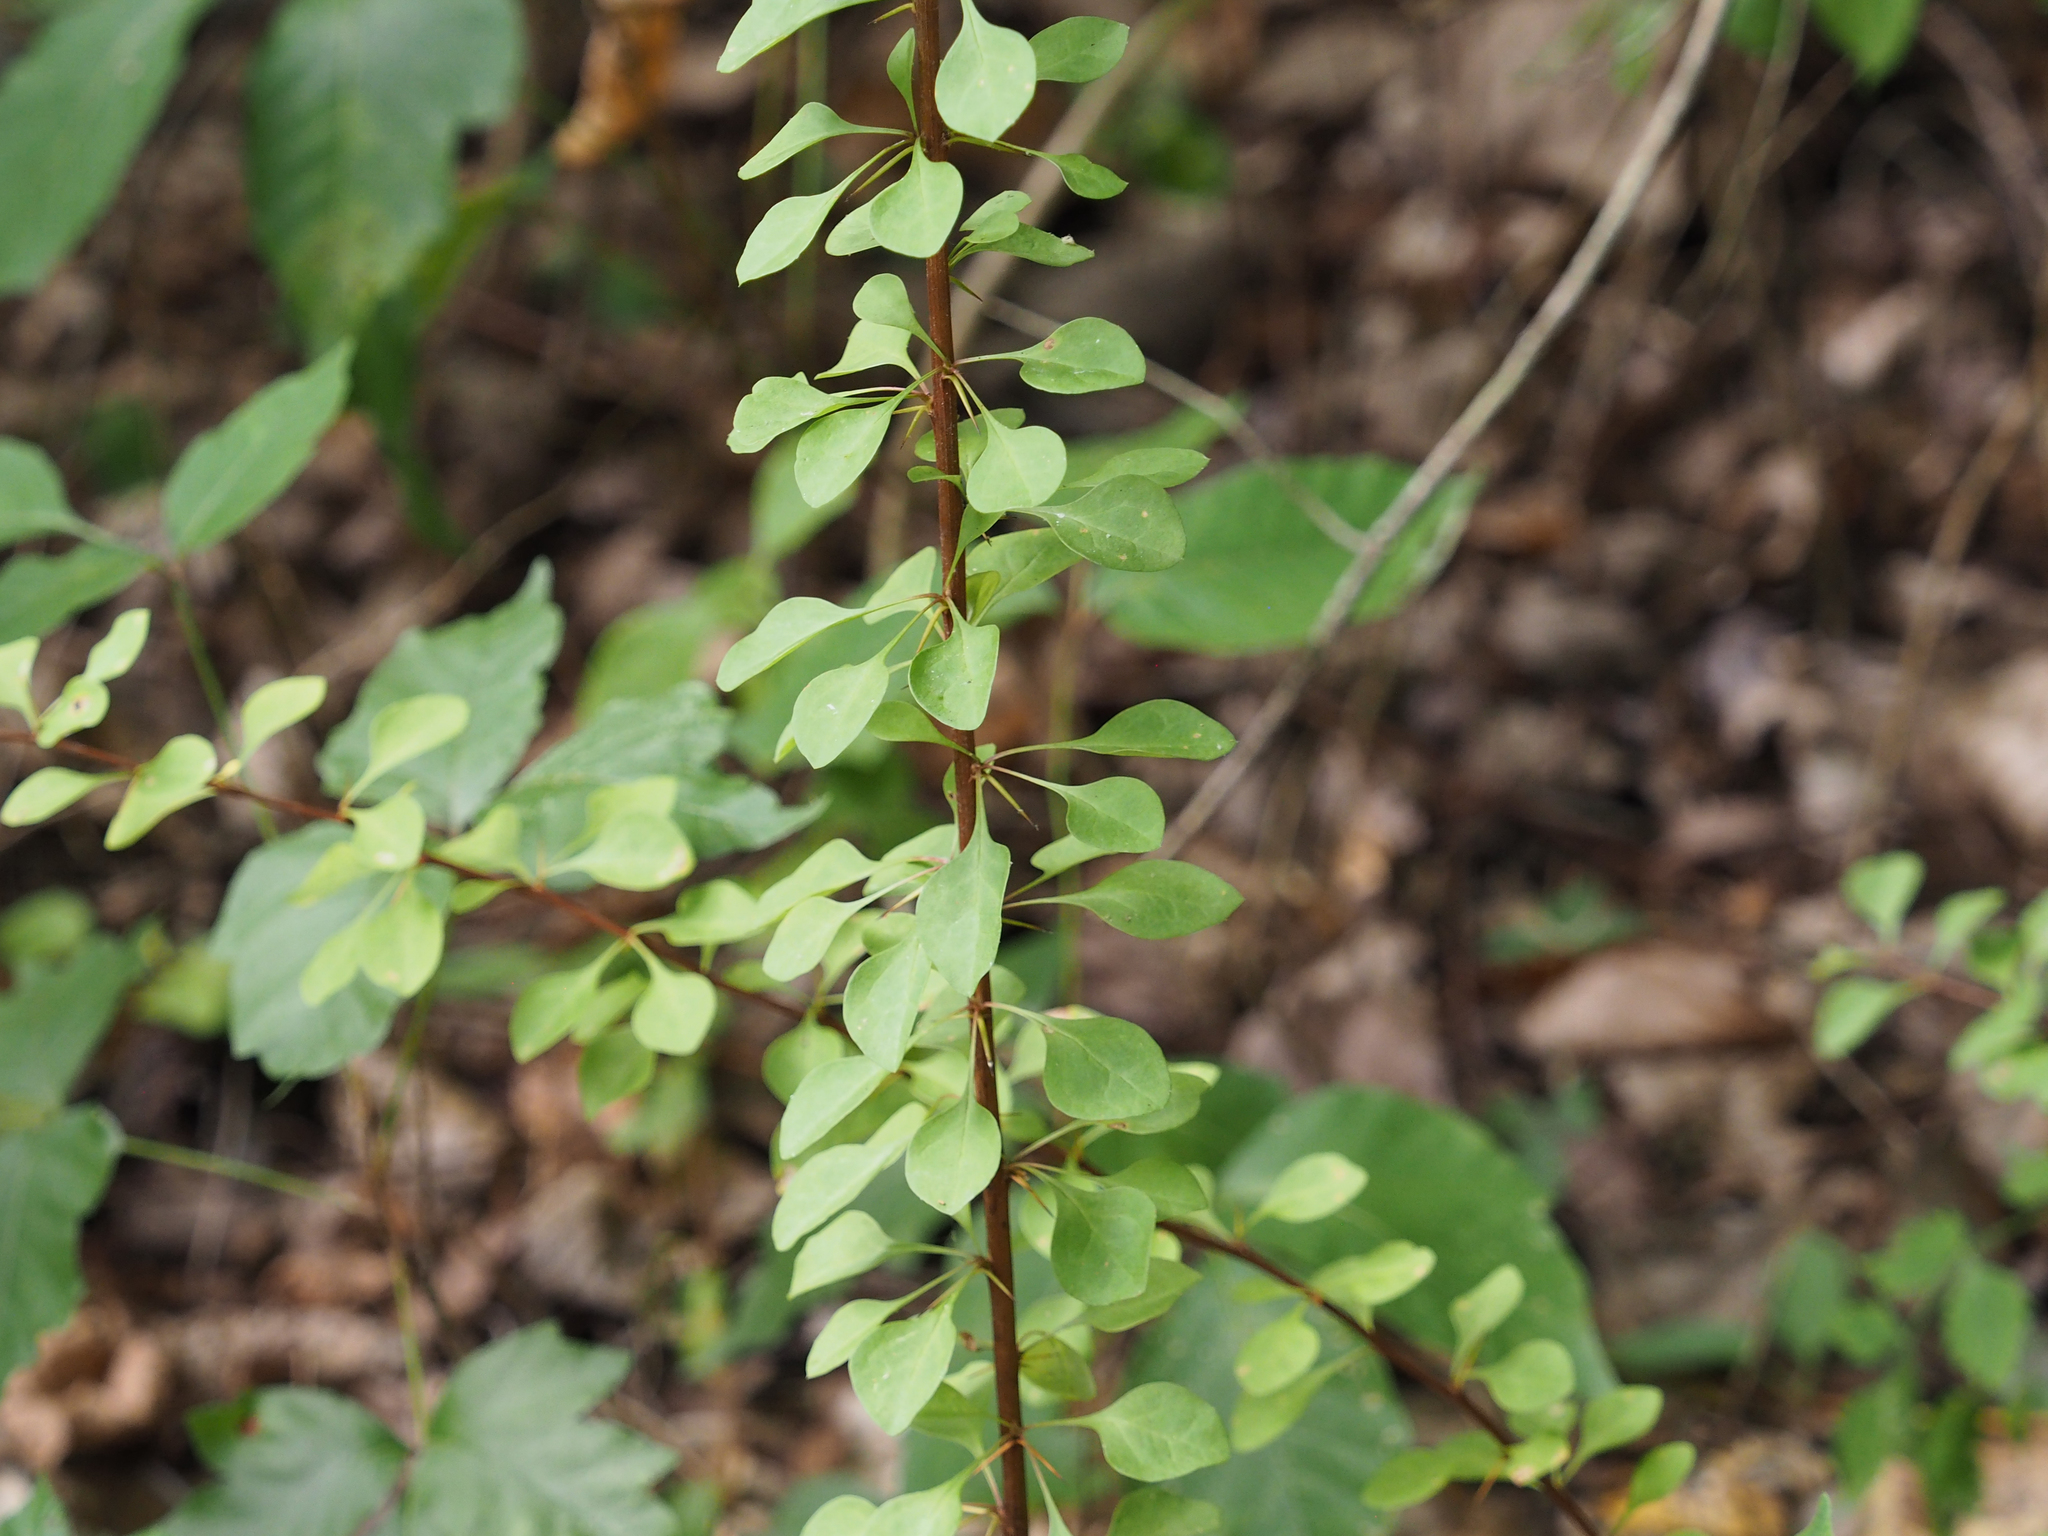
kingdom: Plantae
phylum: Tracheophyta
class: Magnoliopsida
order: Ranunculales
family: Berberidaceae
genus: Berberis
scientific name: Berberis thunbergii
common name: Japanese barberry
